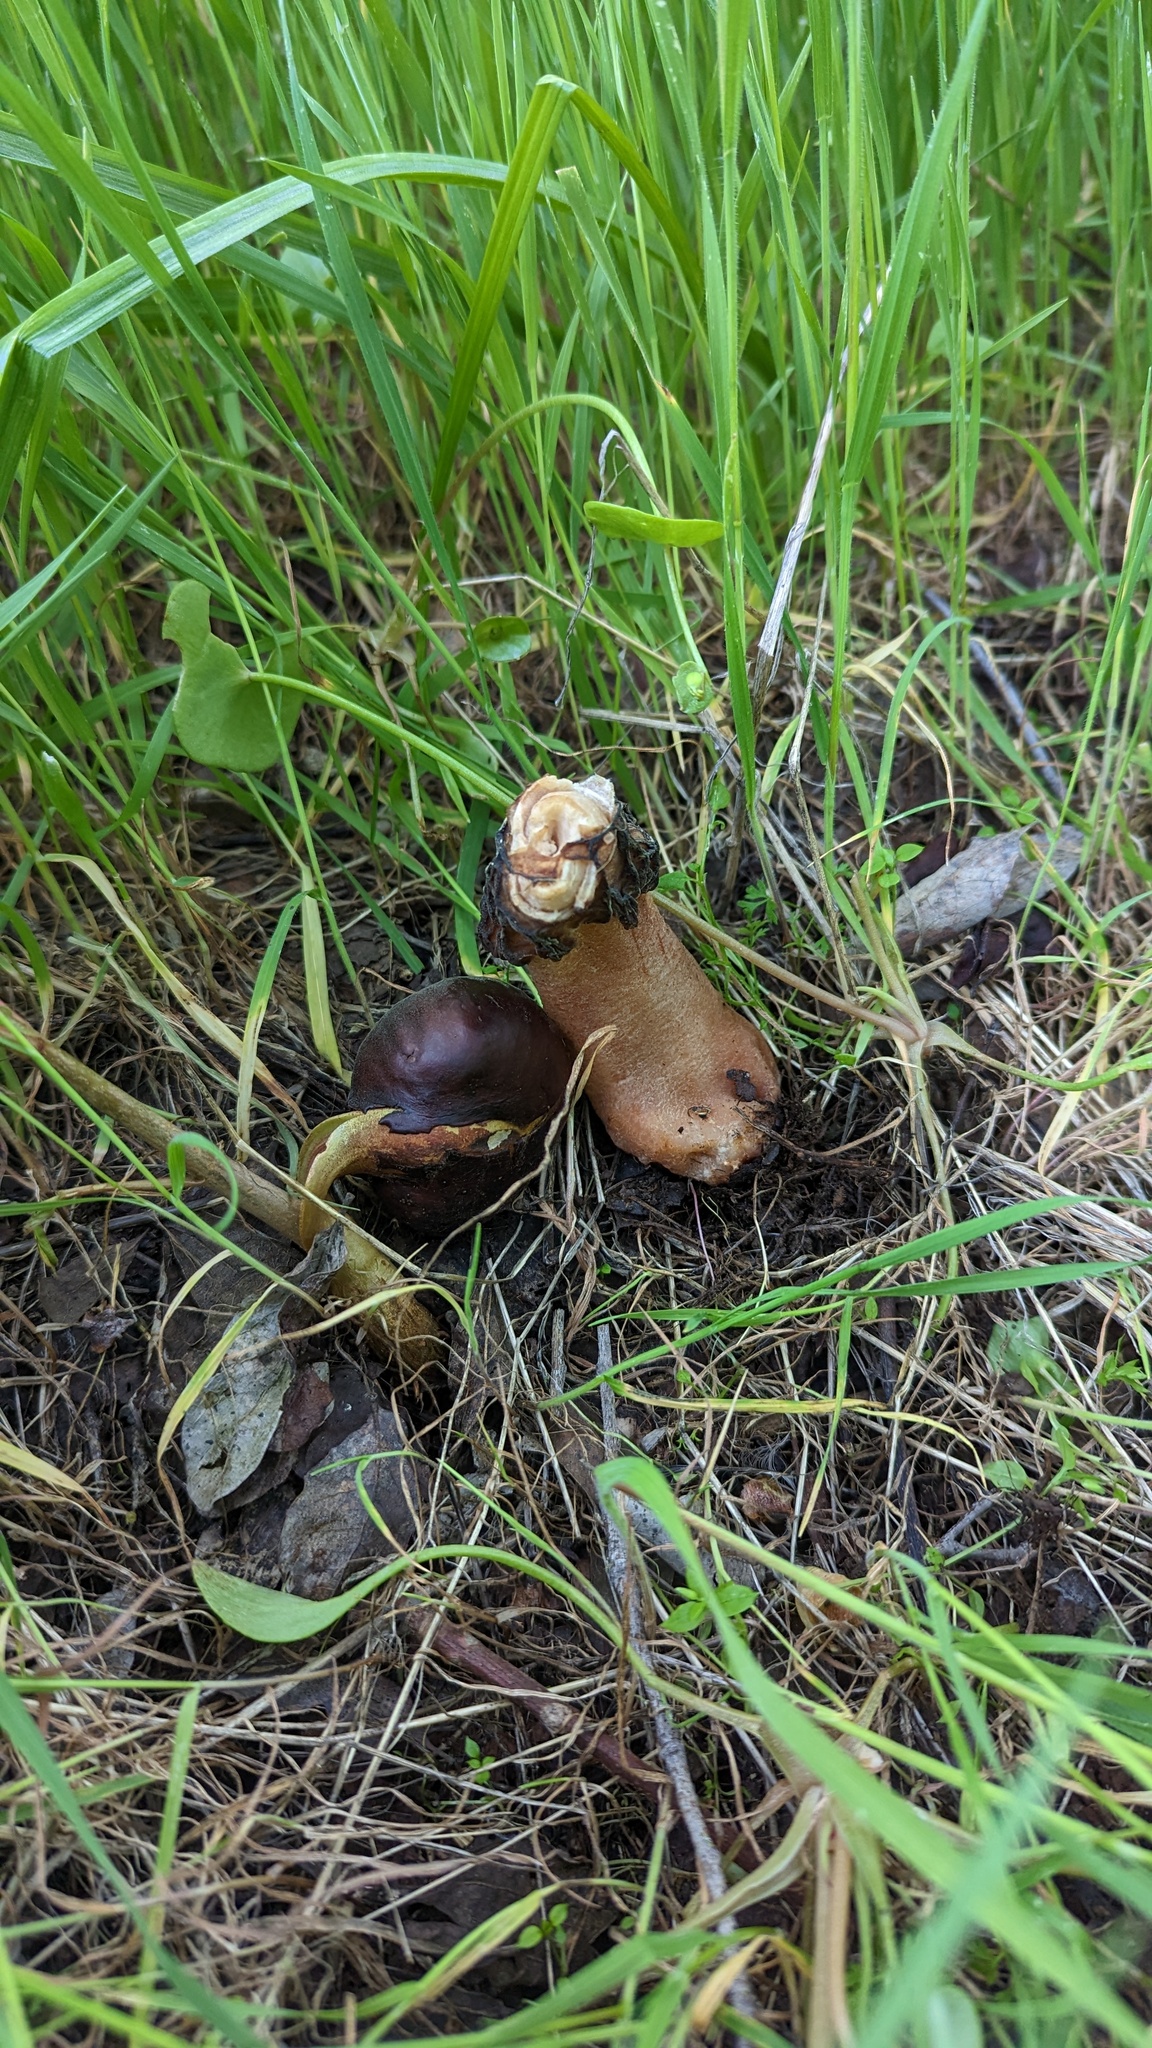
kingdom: Fungi
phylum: Ascomycota
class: Pezizomycetes
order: Pezizales
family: Morchellaceae
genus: Verpa
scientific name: Verpa bohemica
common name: Wrinkled thimble morel
